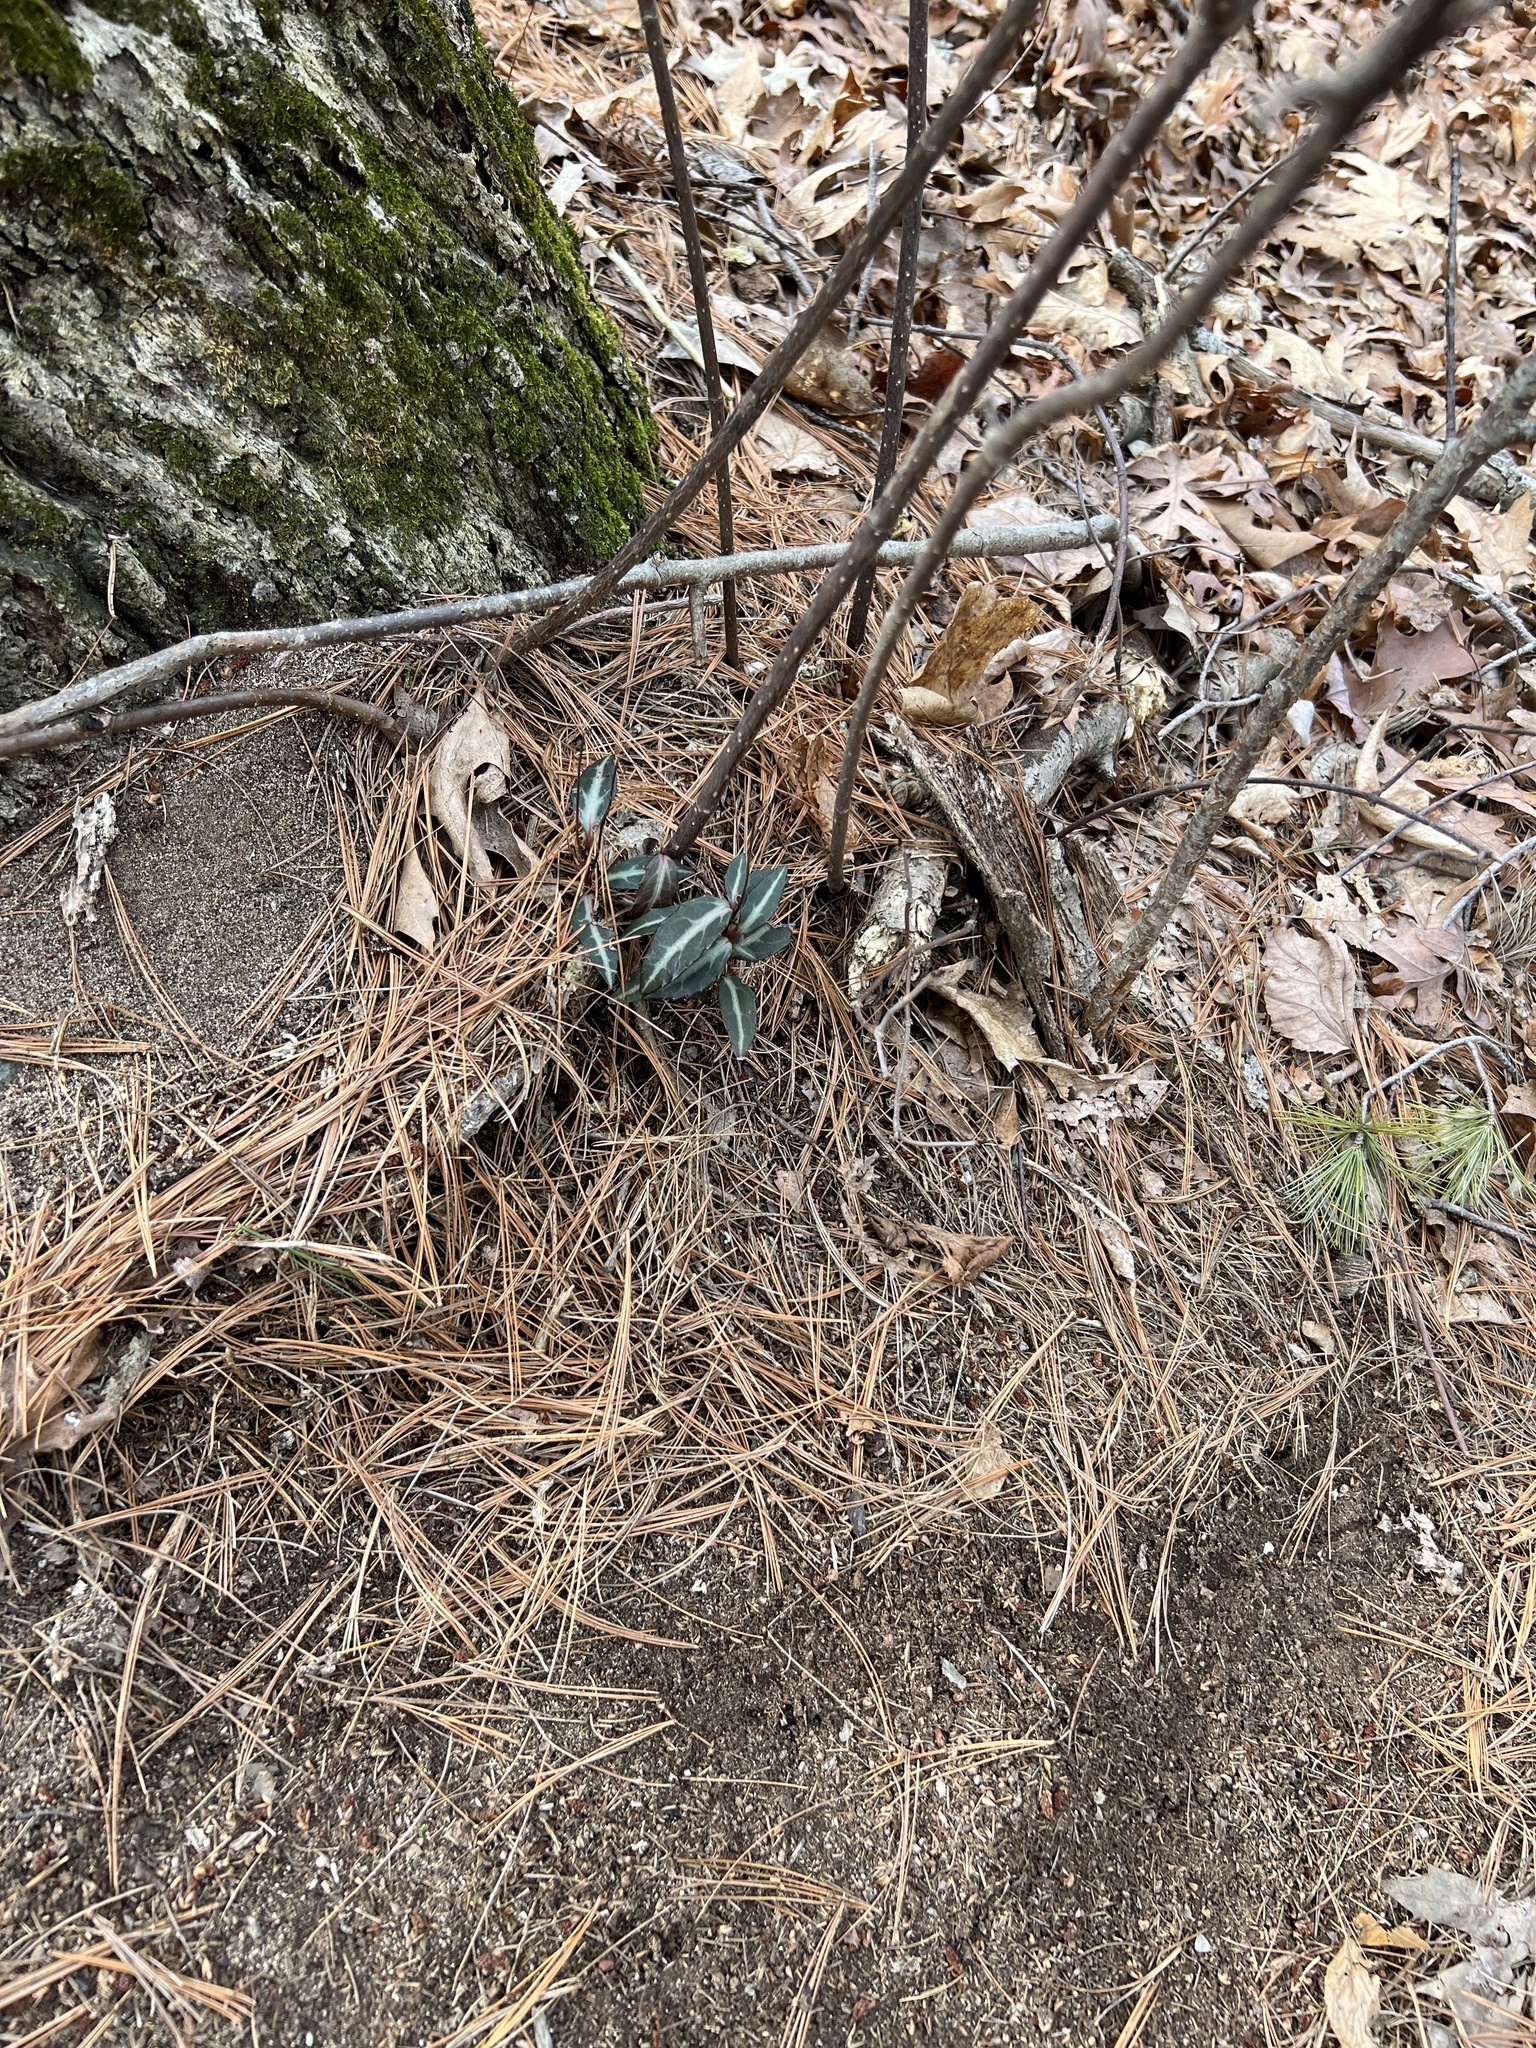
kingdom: Plantae
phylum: Tracheophyta
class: Magnoliopsida
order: Ericales
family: Ericaceae
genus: Chimaphila
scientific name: Chimaphila maculata
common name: Spotted pipsissewa
